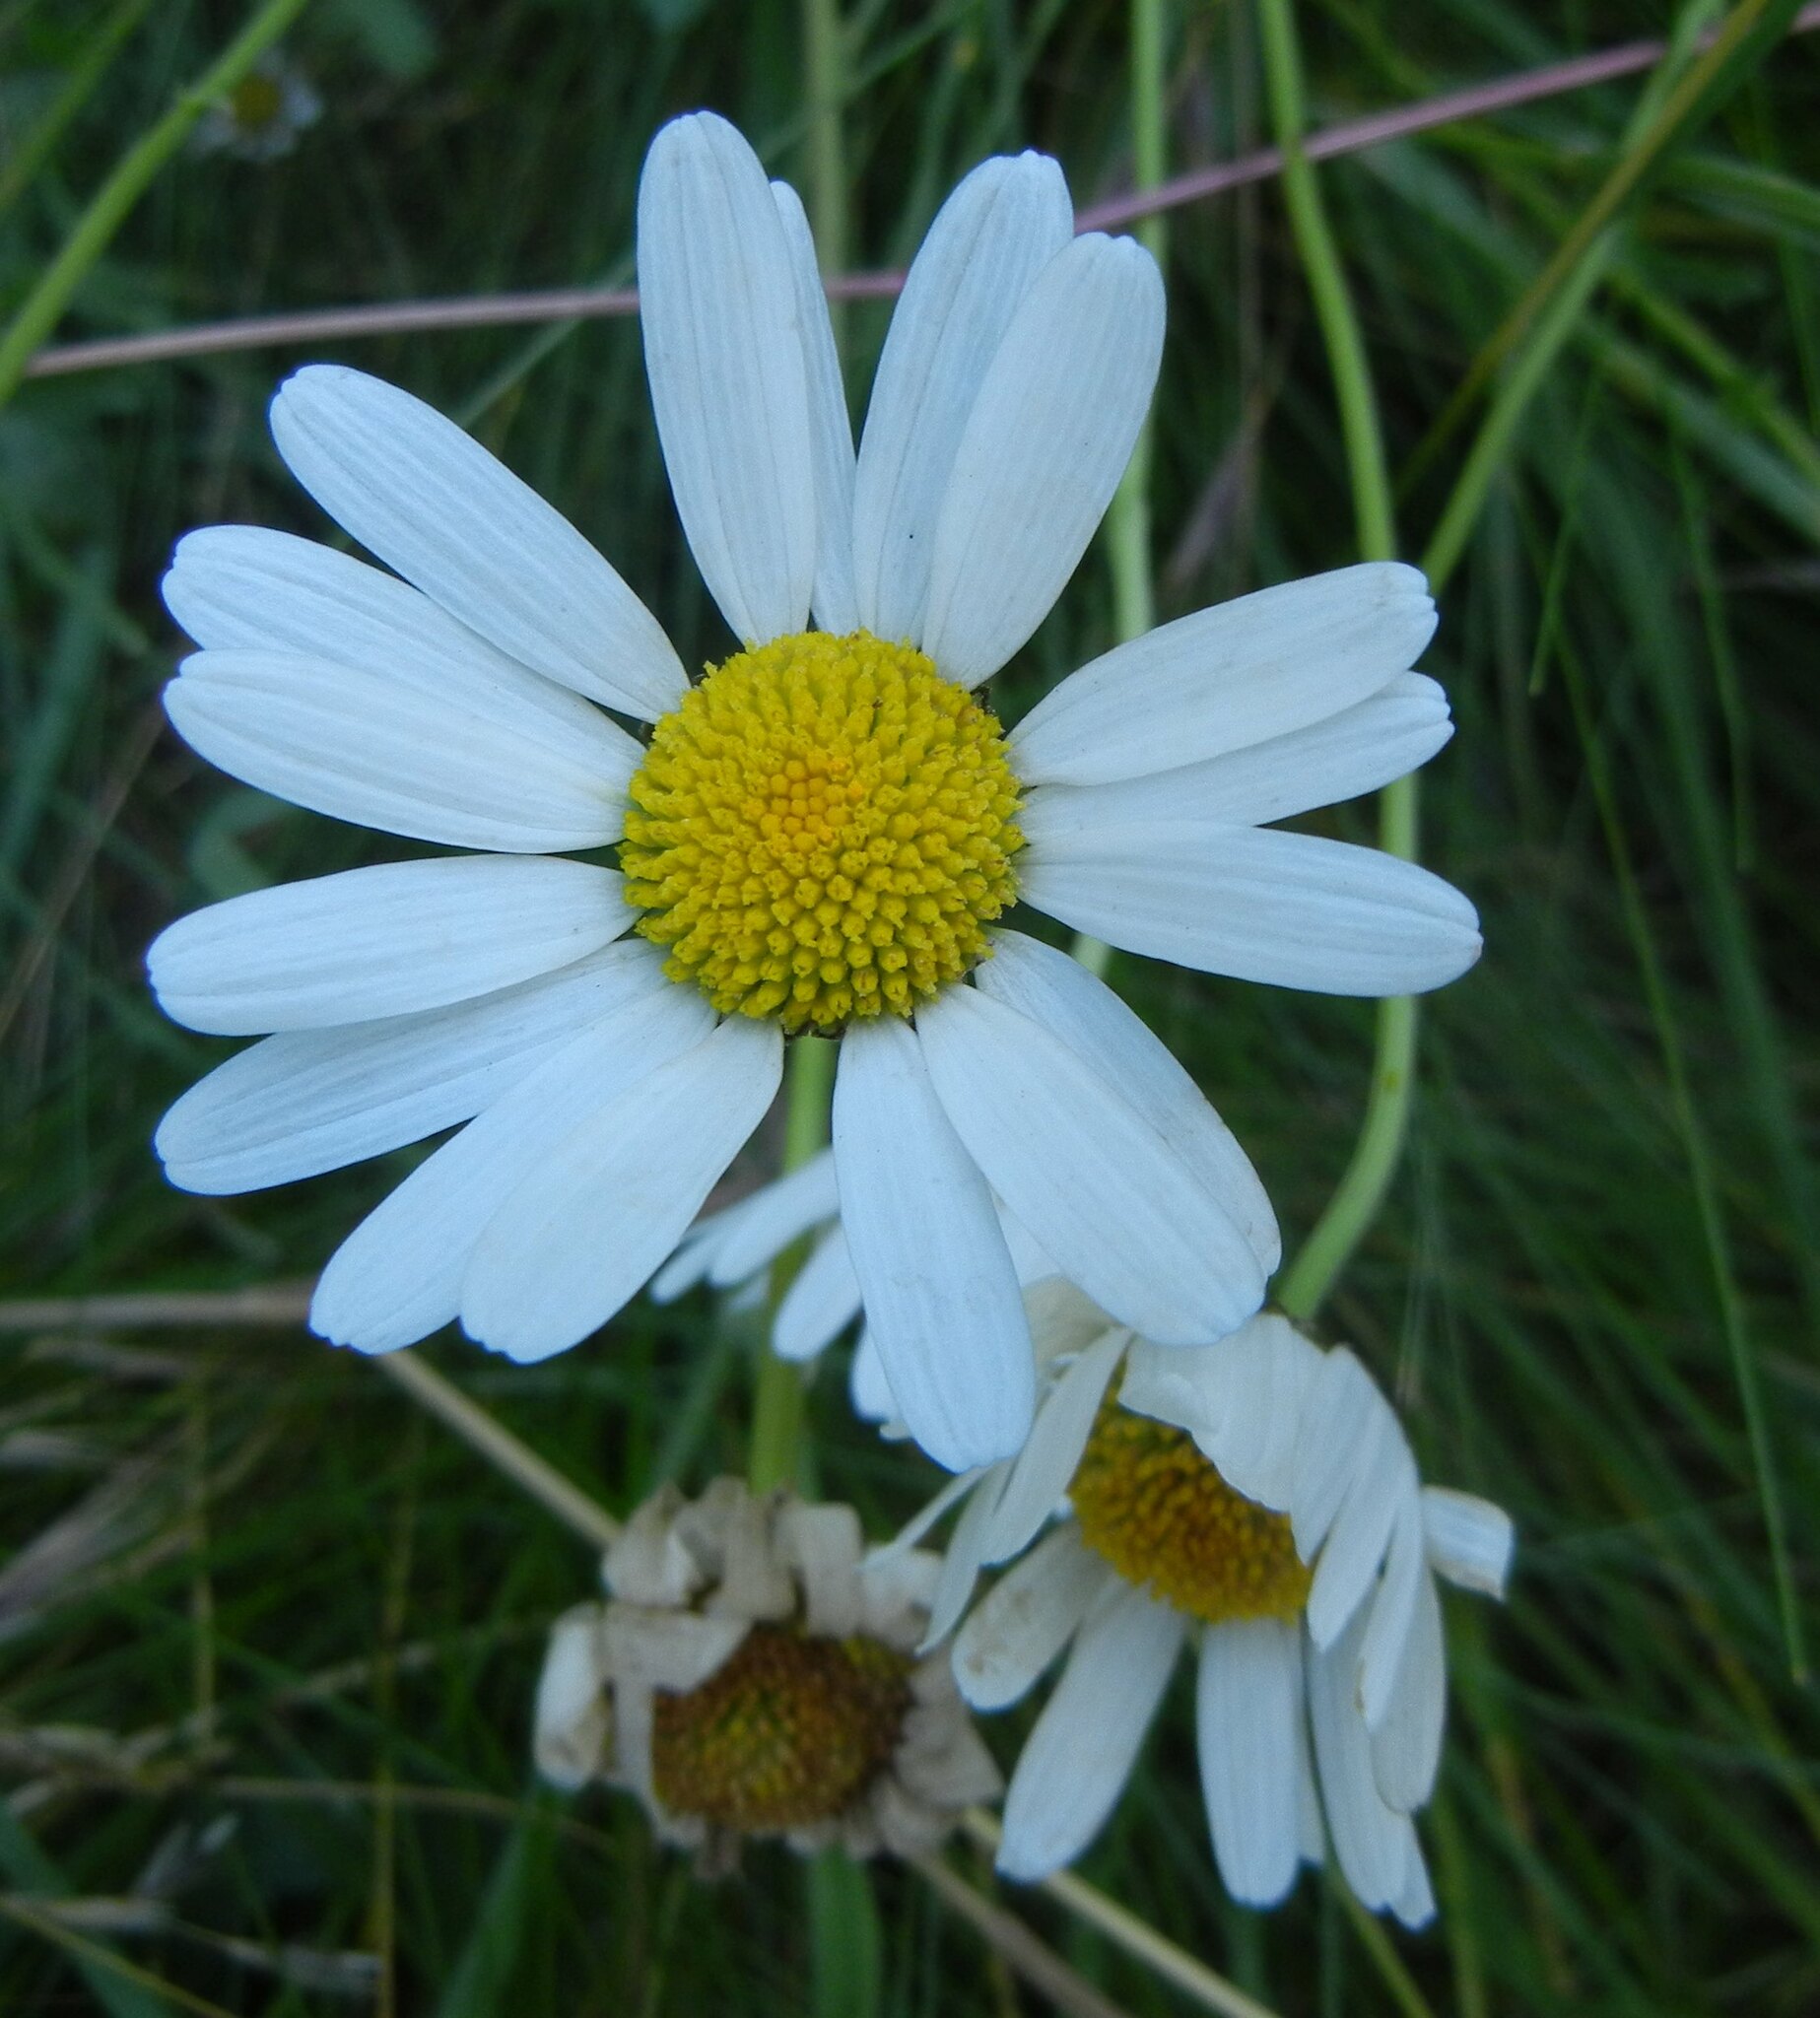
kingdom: Plantae
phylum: Tracheophyta
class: Magnoliopsida
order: Asterales
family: Asteraceae
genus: Leucanthemum
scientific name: Leucanthemum vulgare
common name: Oxeye daisy
